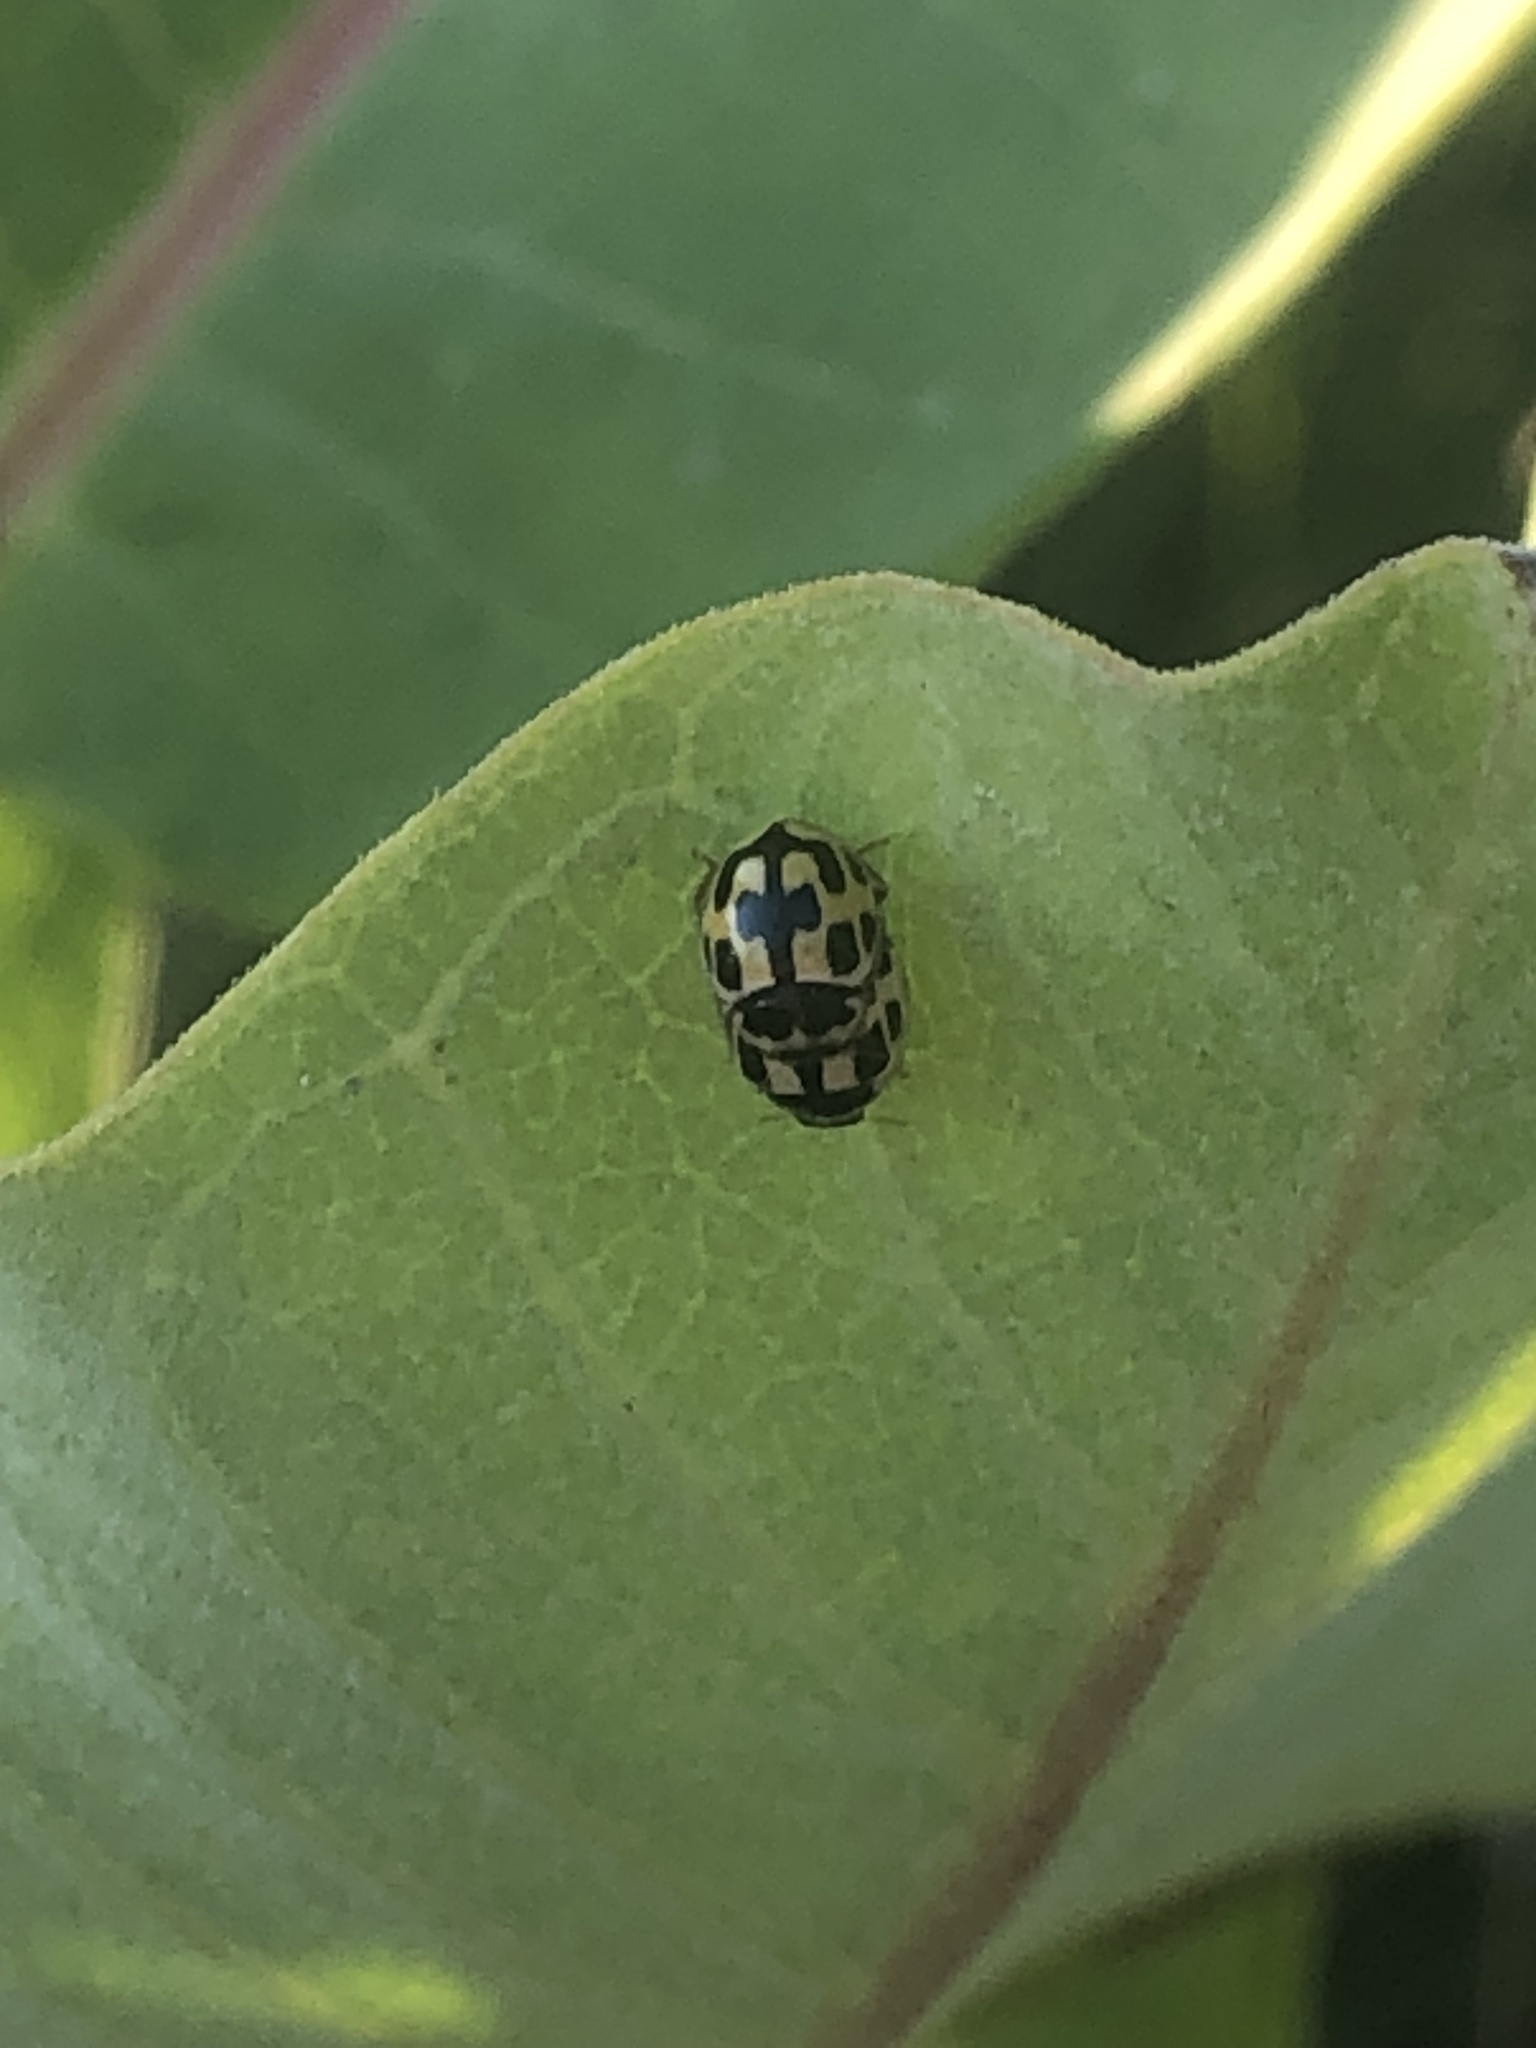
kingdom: Animalia
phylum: Arthropoda
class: Insecta
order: Coleoptera
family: Coccinellidae
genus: Propylaea
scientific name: Propylaea quatuordecimpunctata
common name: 14-spotted ladybird beetle
